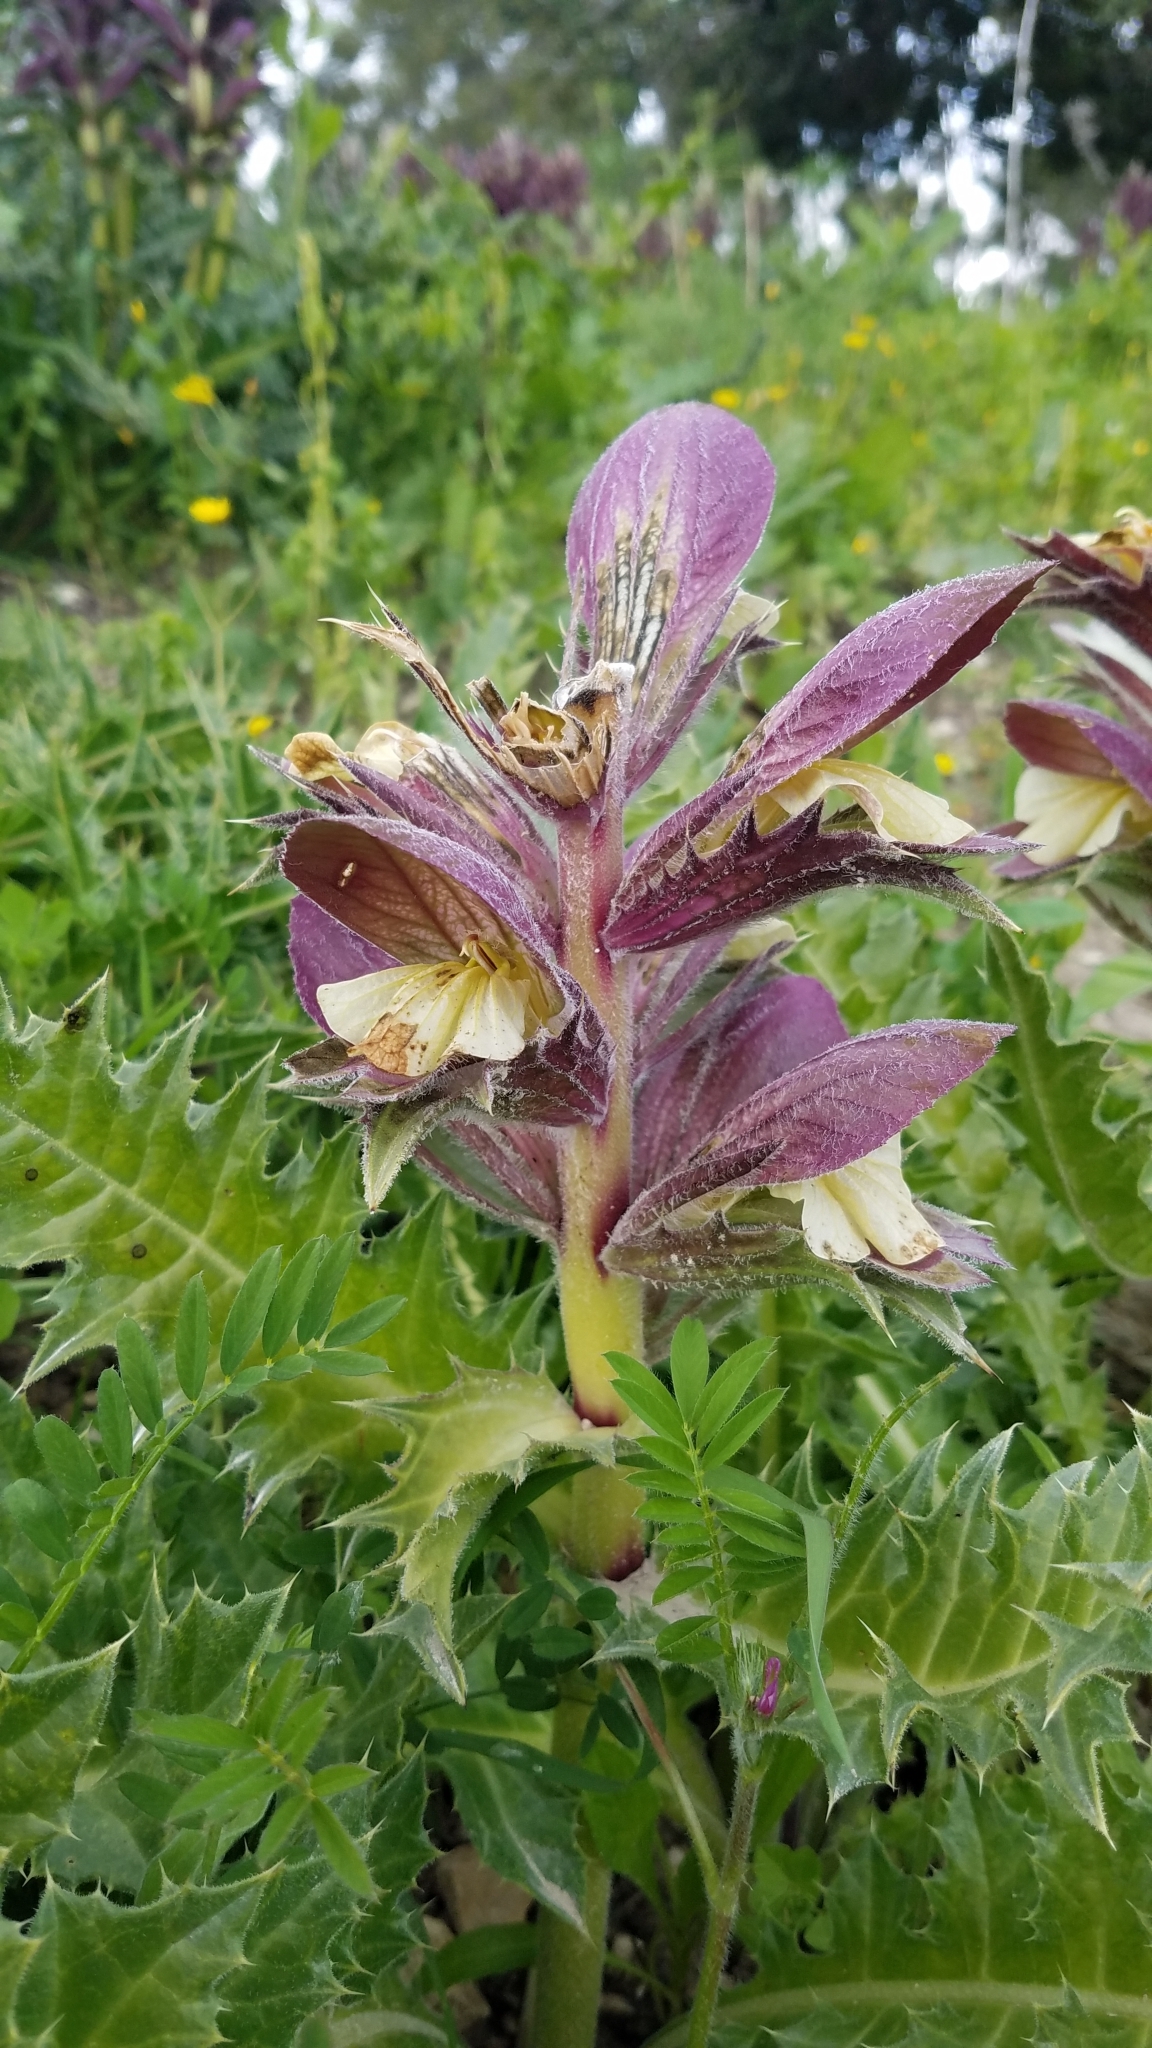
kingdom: Plantae
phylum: Tracheophyta
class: Magnoliopsida
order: Lamiales
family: Acanthaceae
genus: Acanthus
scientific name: Acanthus hirsutus
